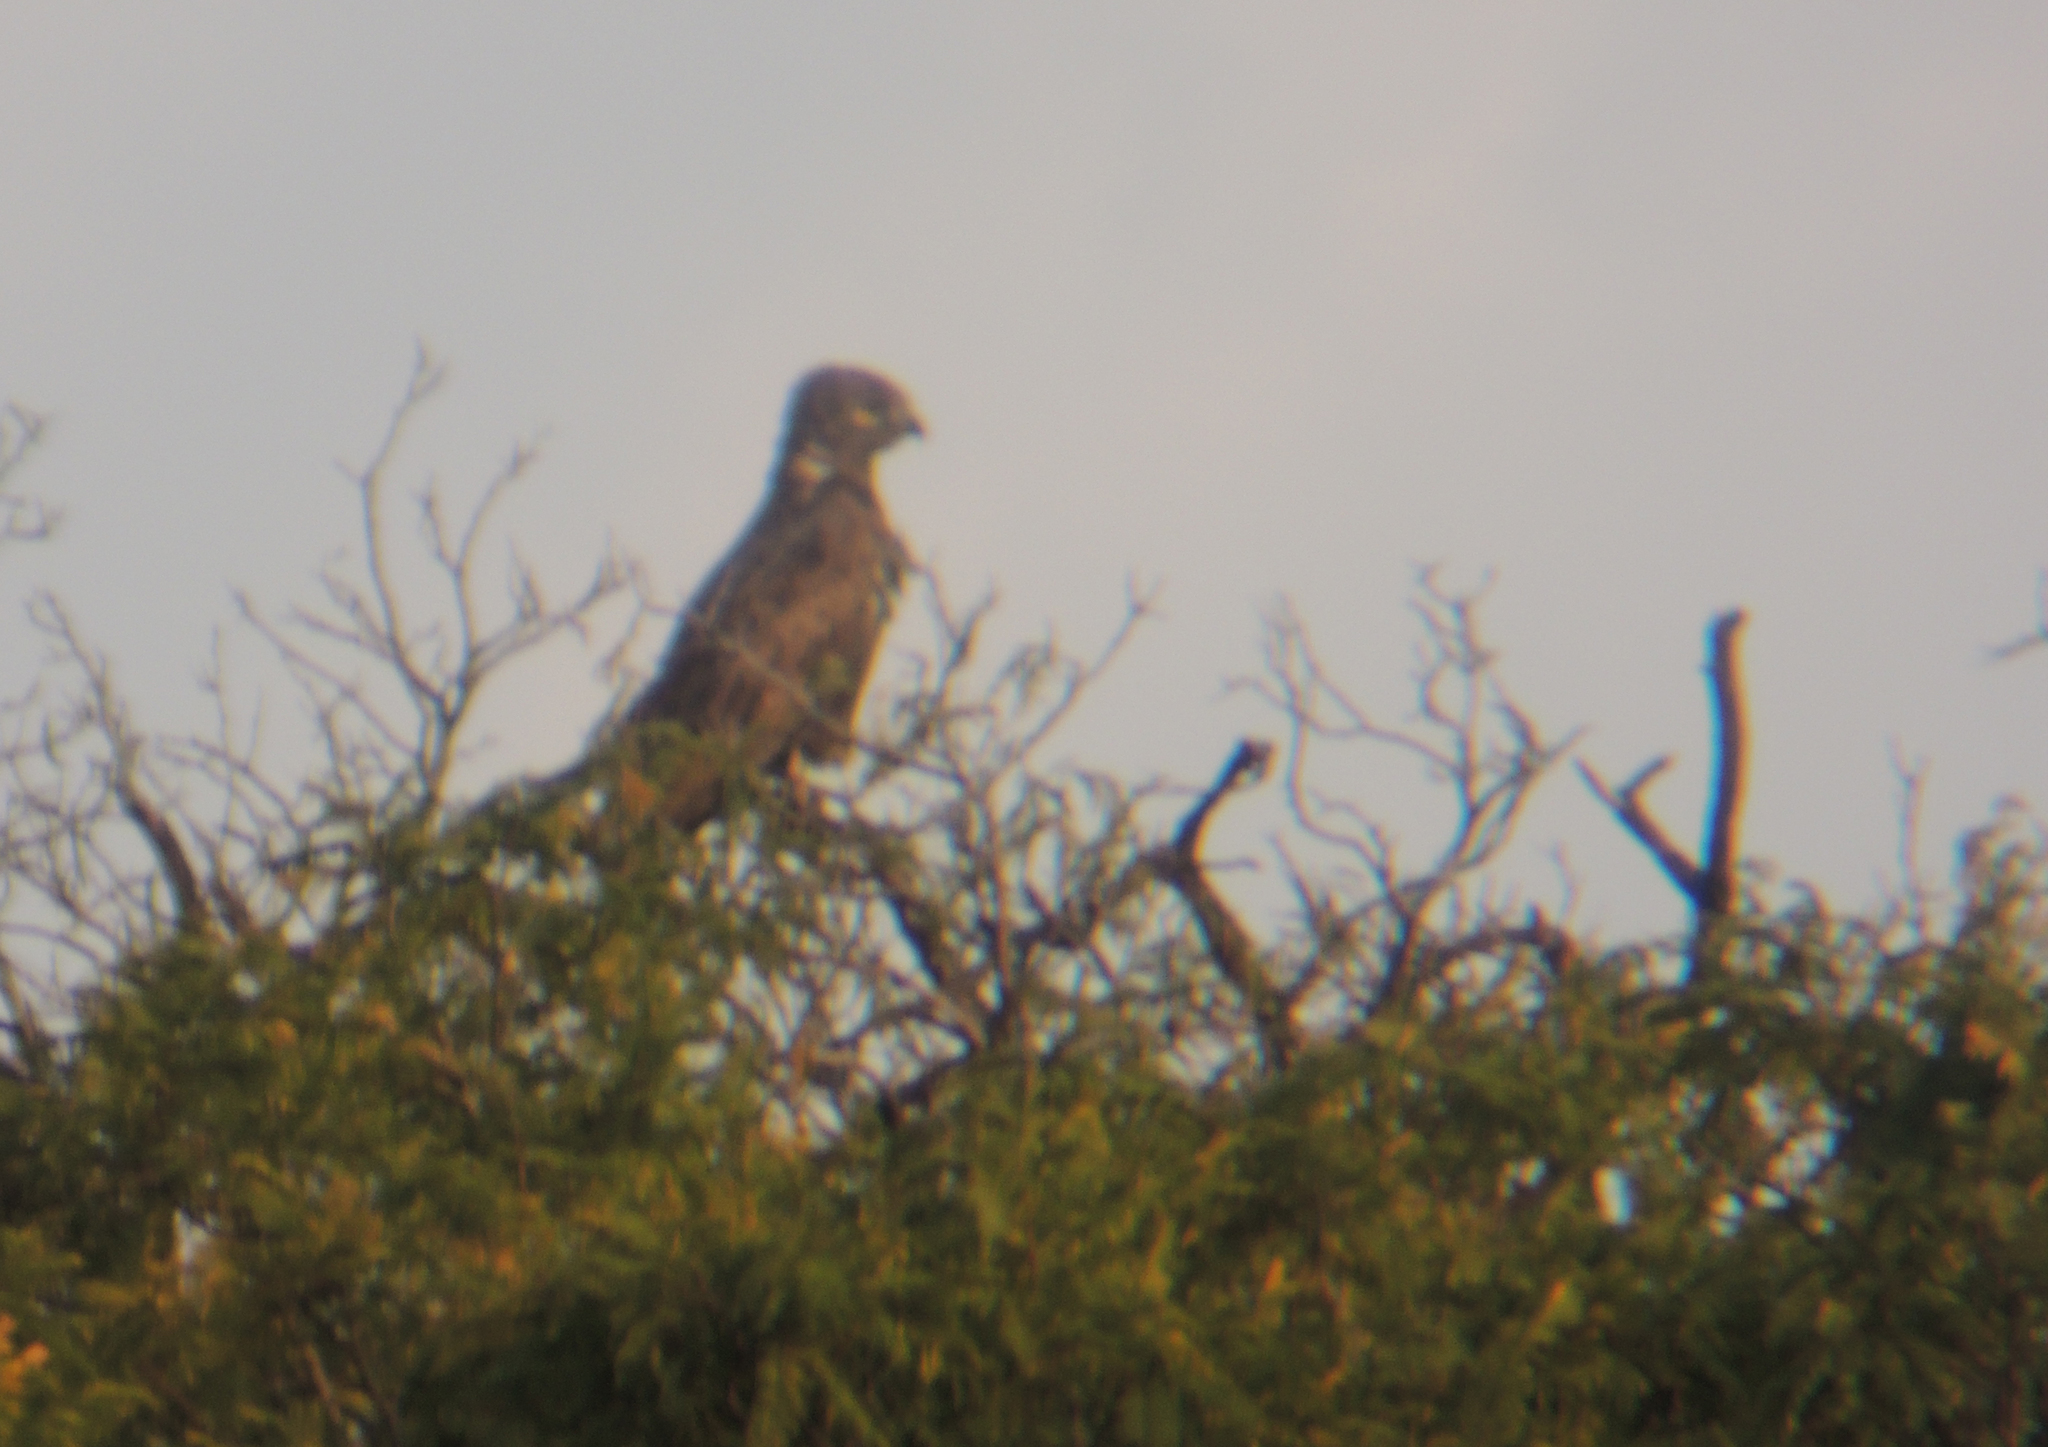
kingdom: Animalia
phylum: Chordata
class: Aves
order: Accipitriformes
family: Accipitridae
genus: Circaetus
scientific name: Circaetus cinereus
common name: Brown snake eagle
